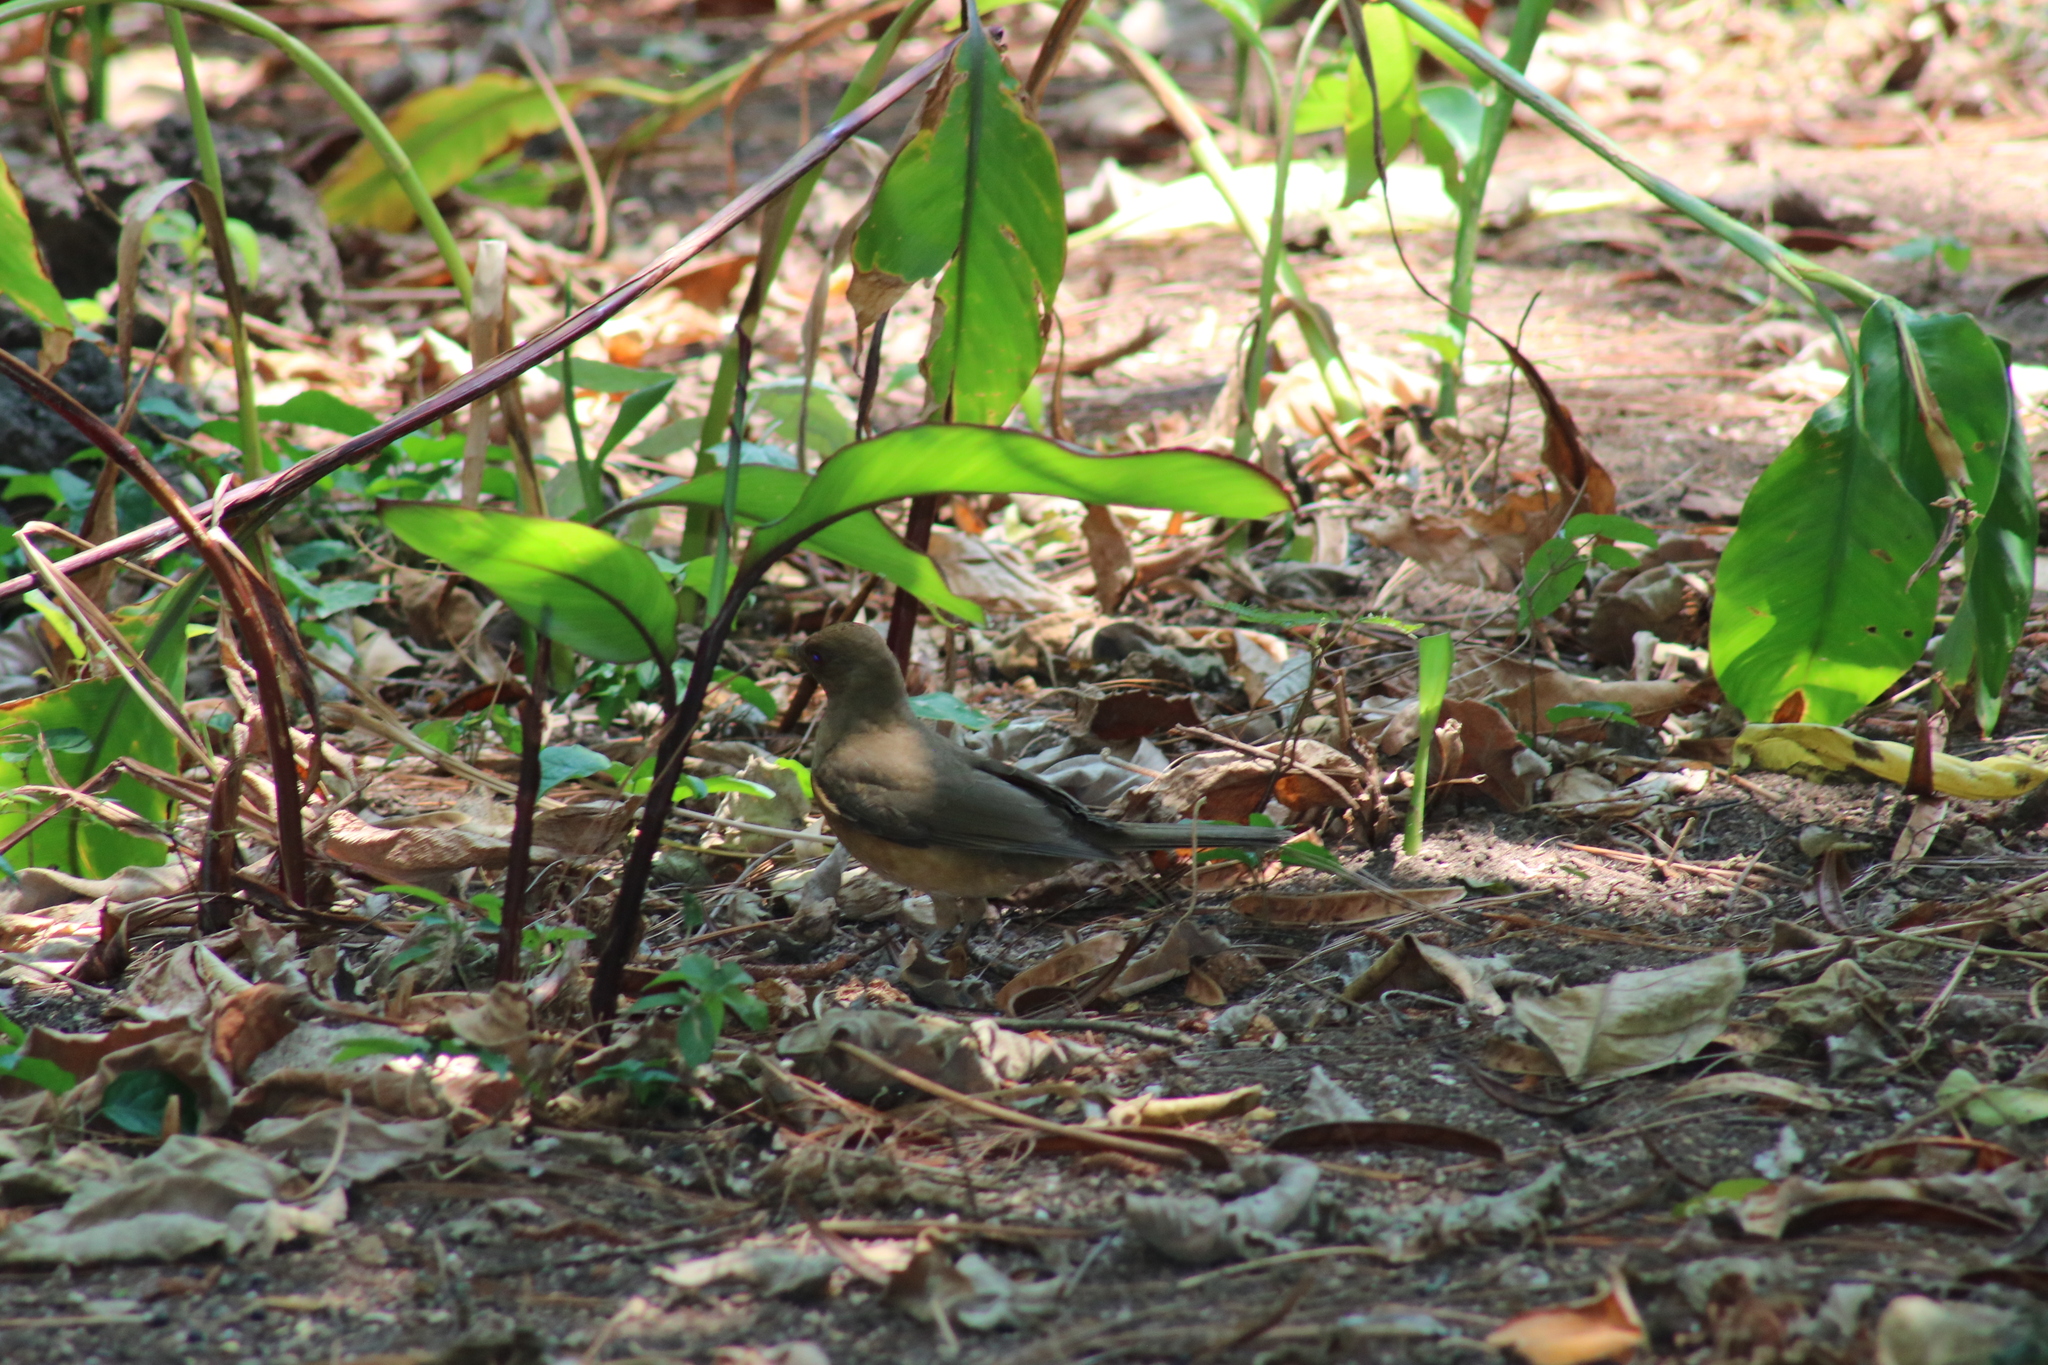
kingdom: Animalia
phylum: Chordata
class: Aves
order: Passeriformes
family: Turdidae
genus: Turdus
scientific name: Turdus grayi
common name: Clay-colored thrush
